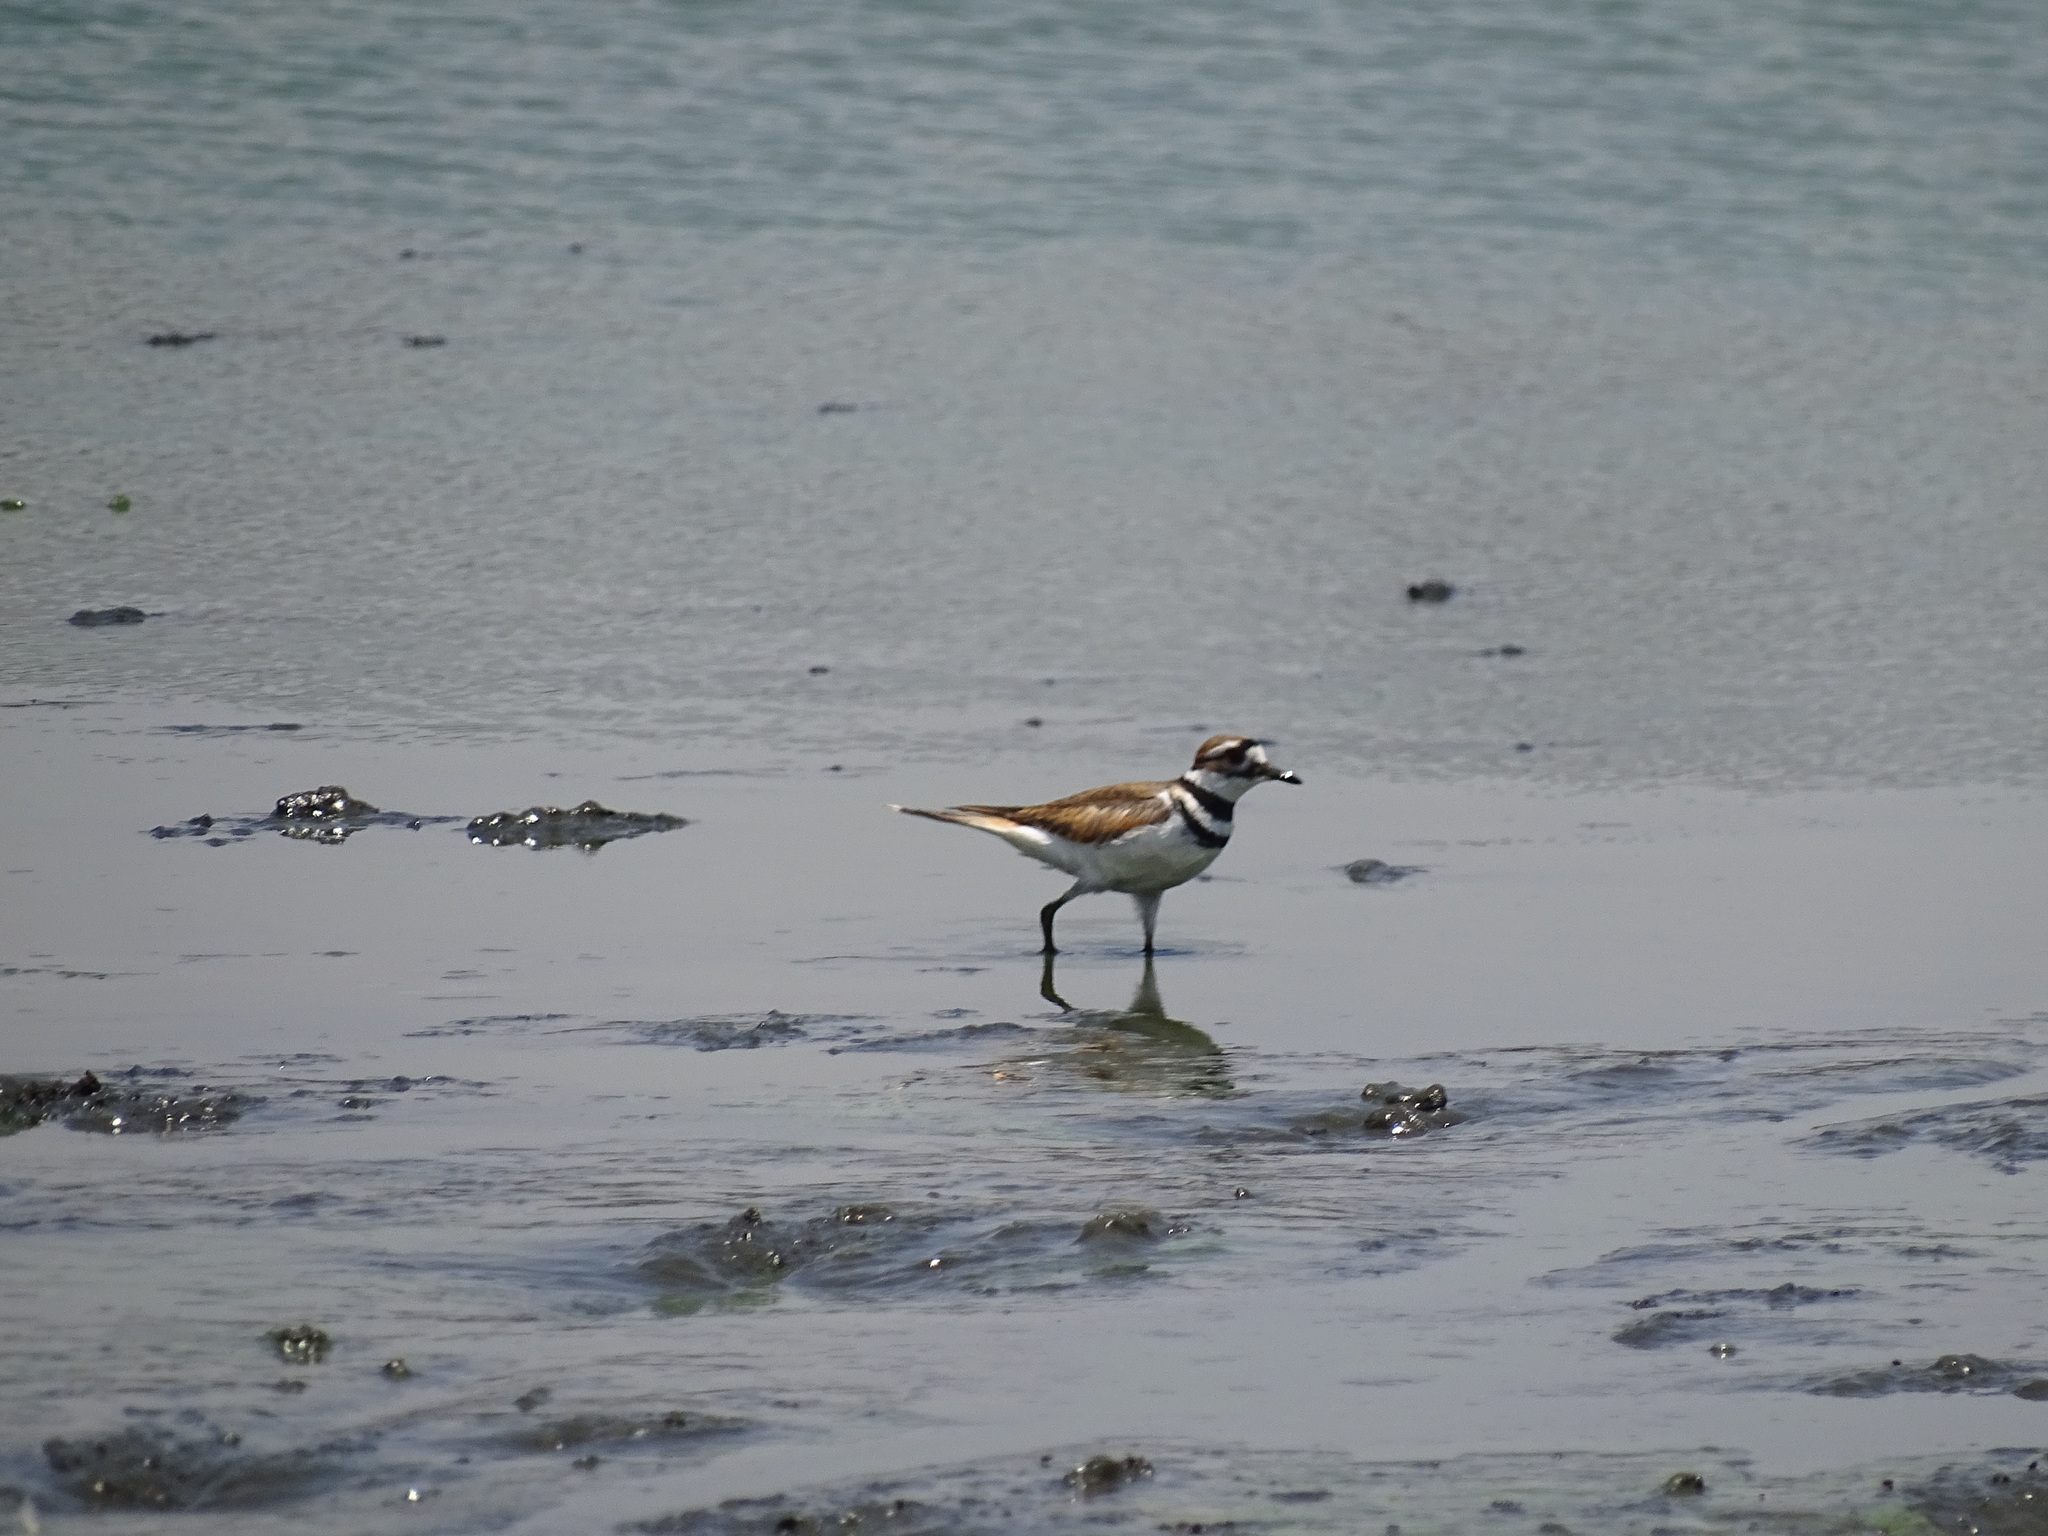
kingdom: Animalia
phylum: Chordata
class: Aves
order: Charadriiformes
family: Charadriidae
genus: Charadrius
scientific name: Charadrius vociferus
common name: Killdeer
